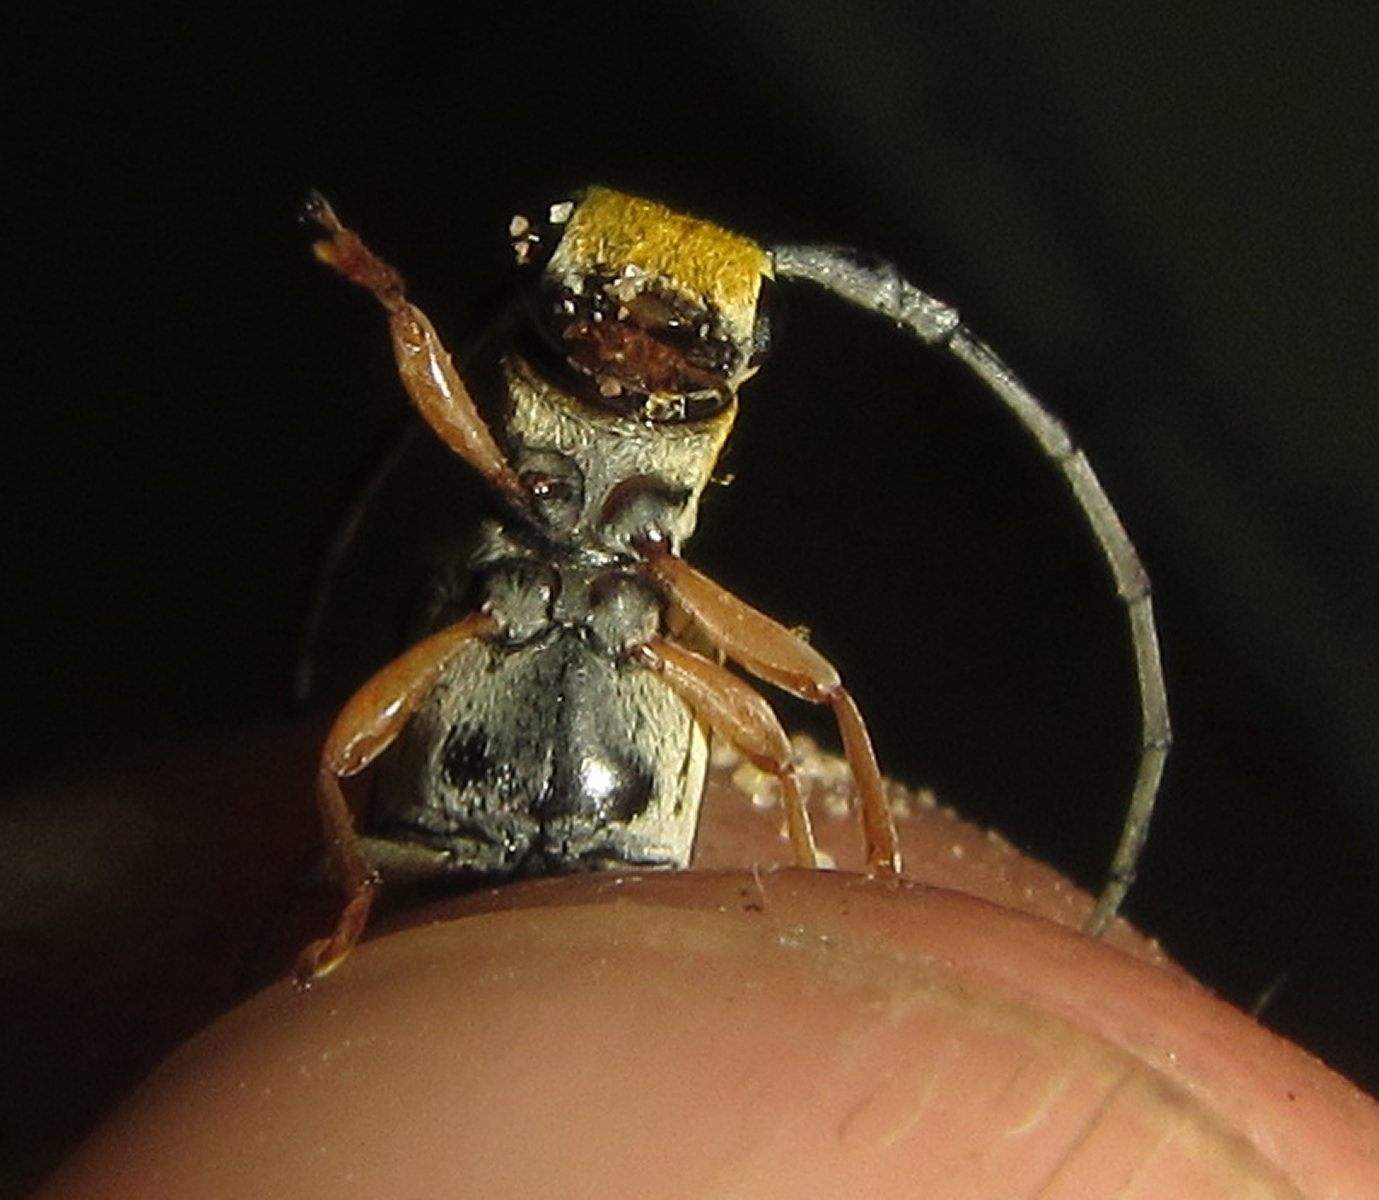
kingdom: Animalia
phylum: Arthropoda
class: Insecta
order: Coleoptera
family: Cerambycidae
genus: Eunidia
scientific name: Eunidia sulphurea
